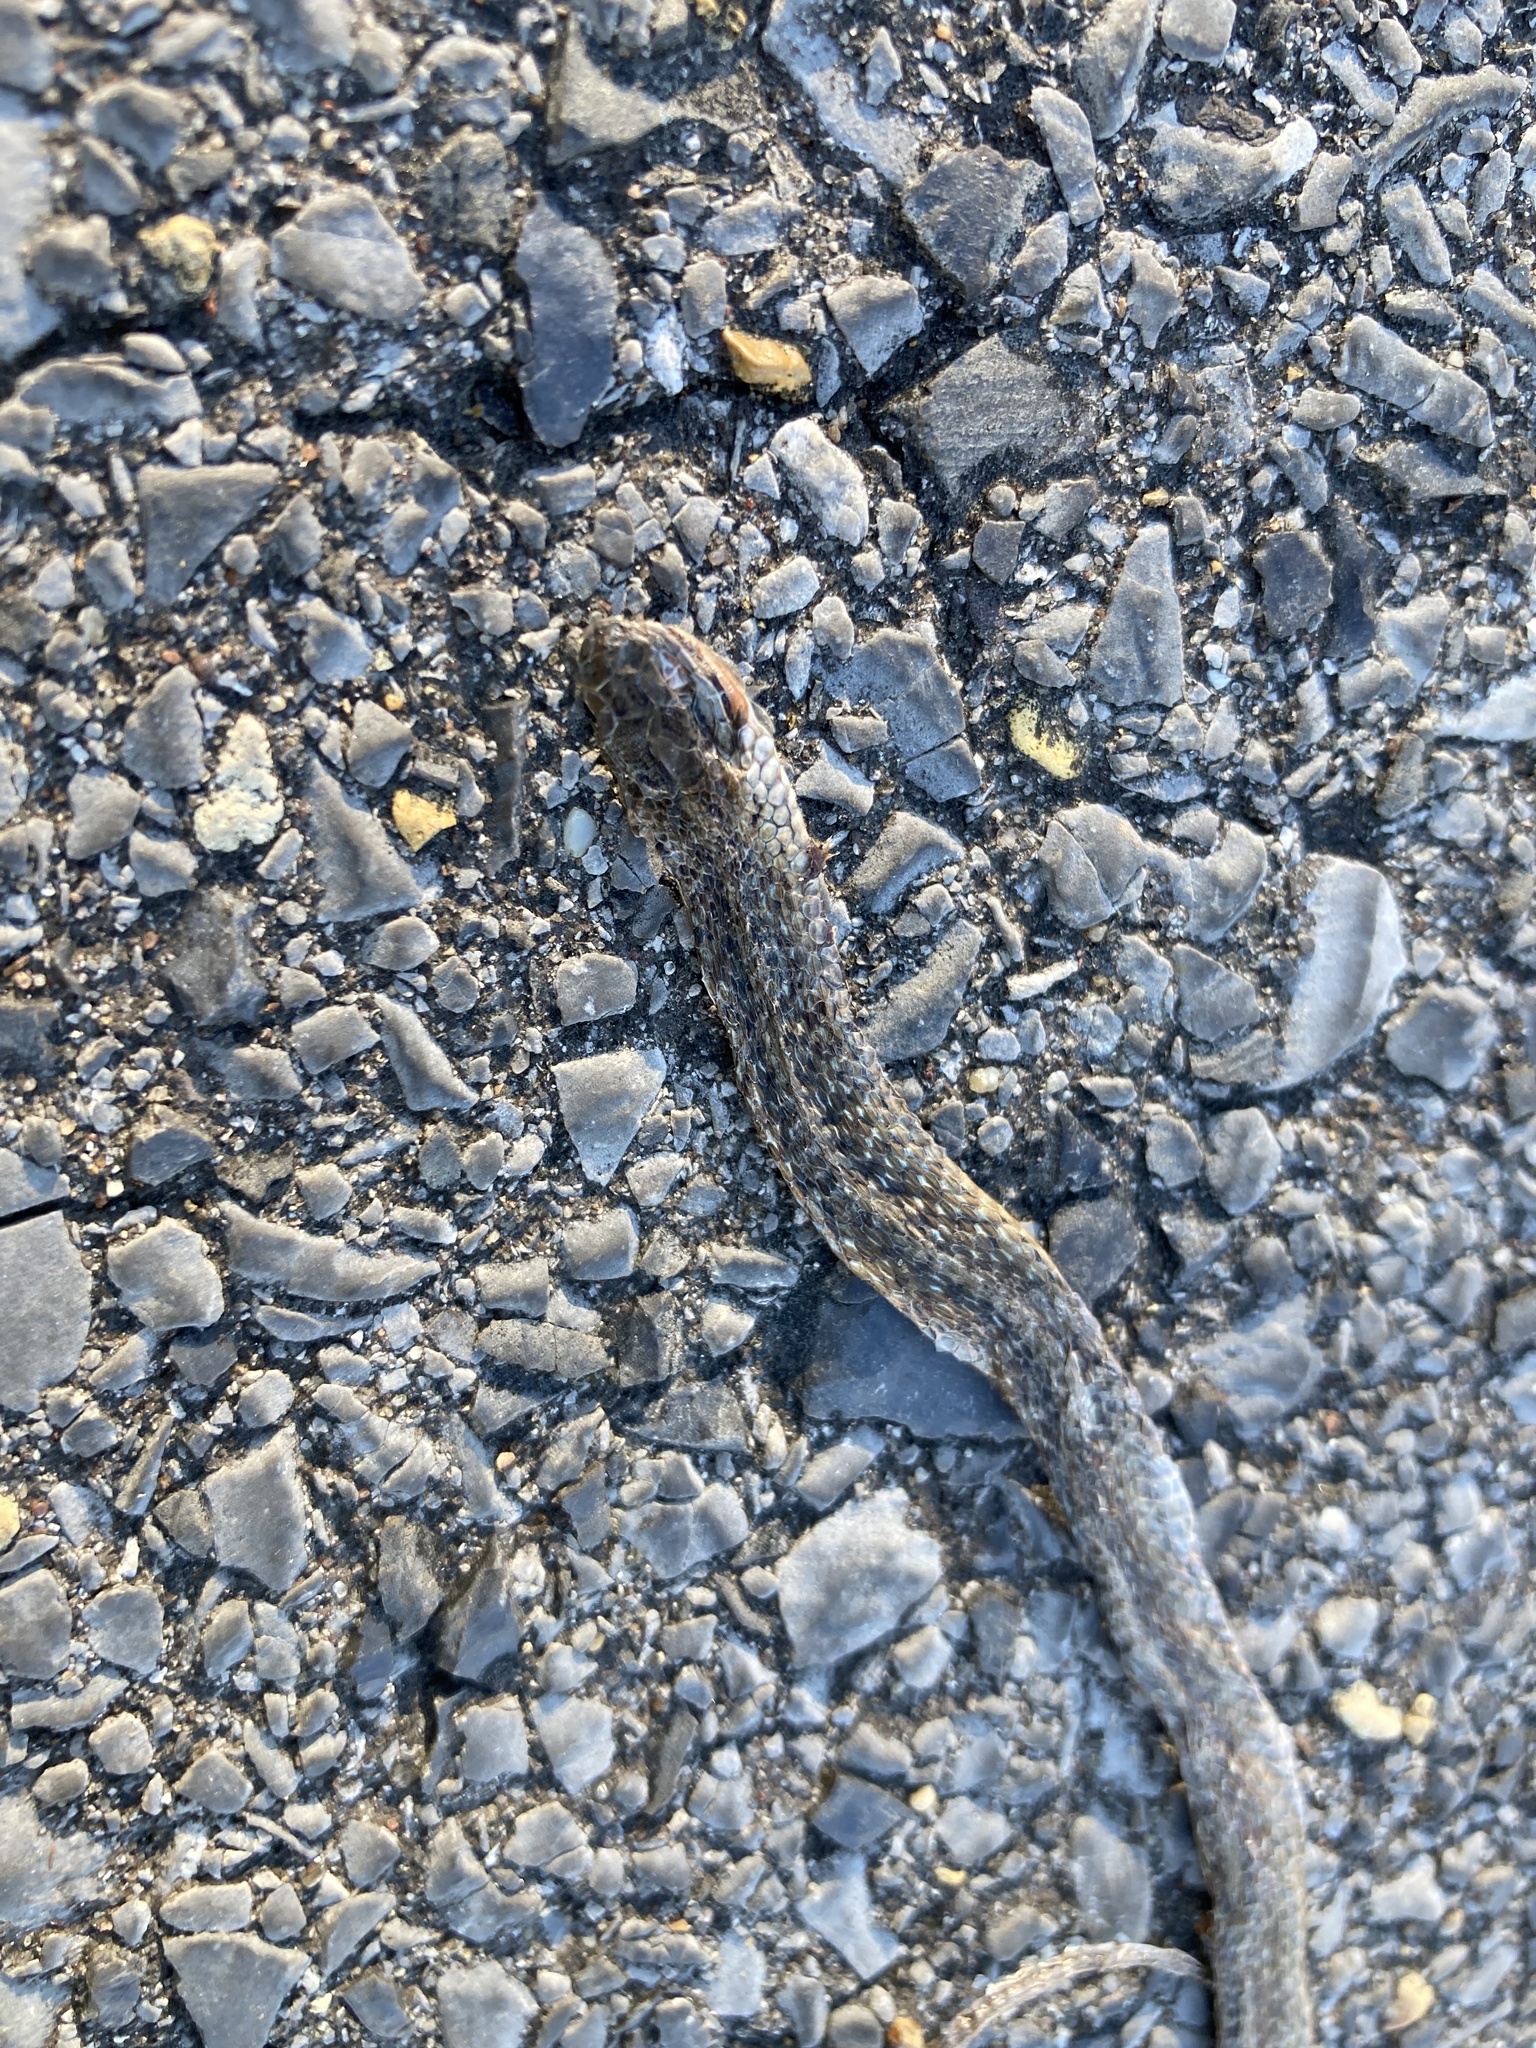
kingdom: Animalia
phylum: Chordata
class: Squamata
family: Colubridae
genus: Storeria
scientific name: Storeria dekayi
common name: (dekay’s) brown snake
